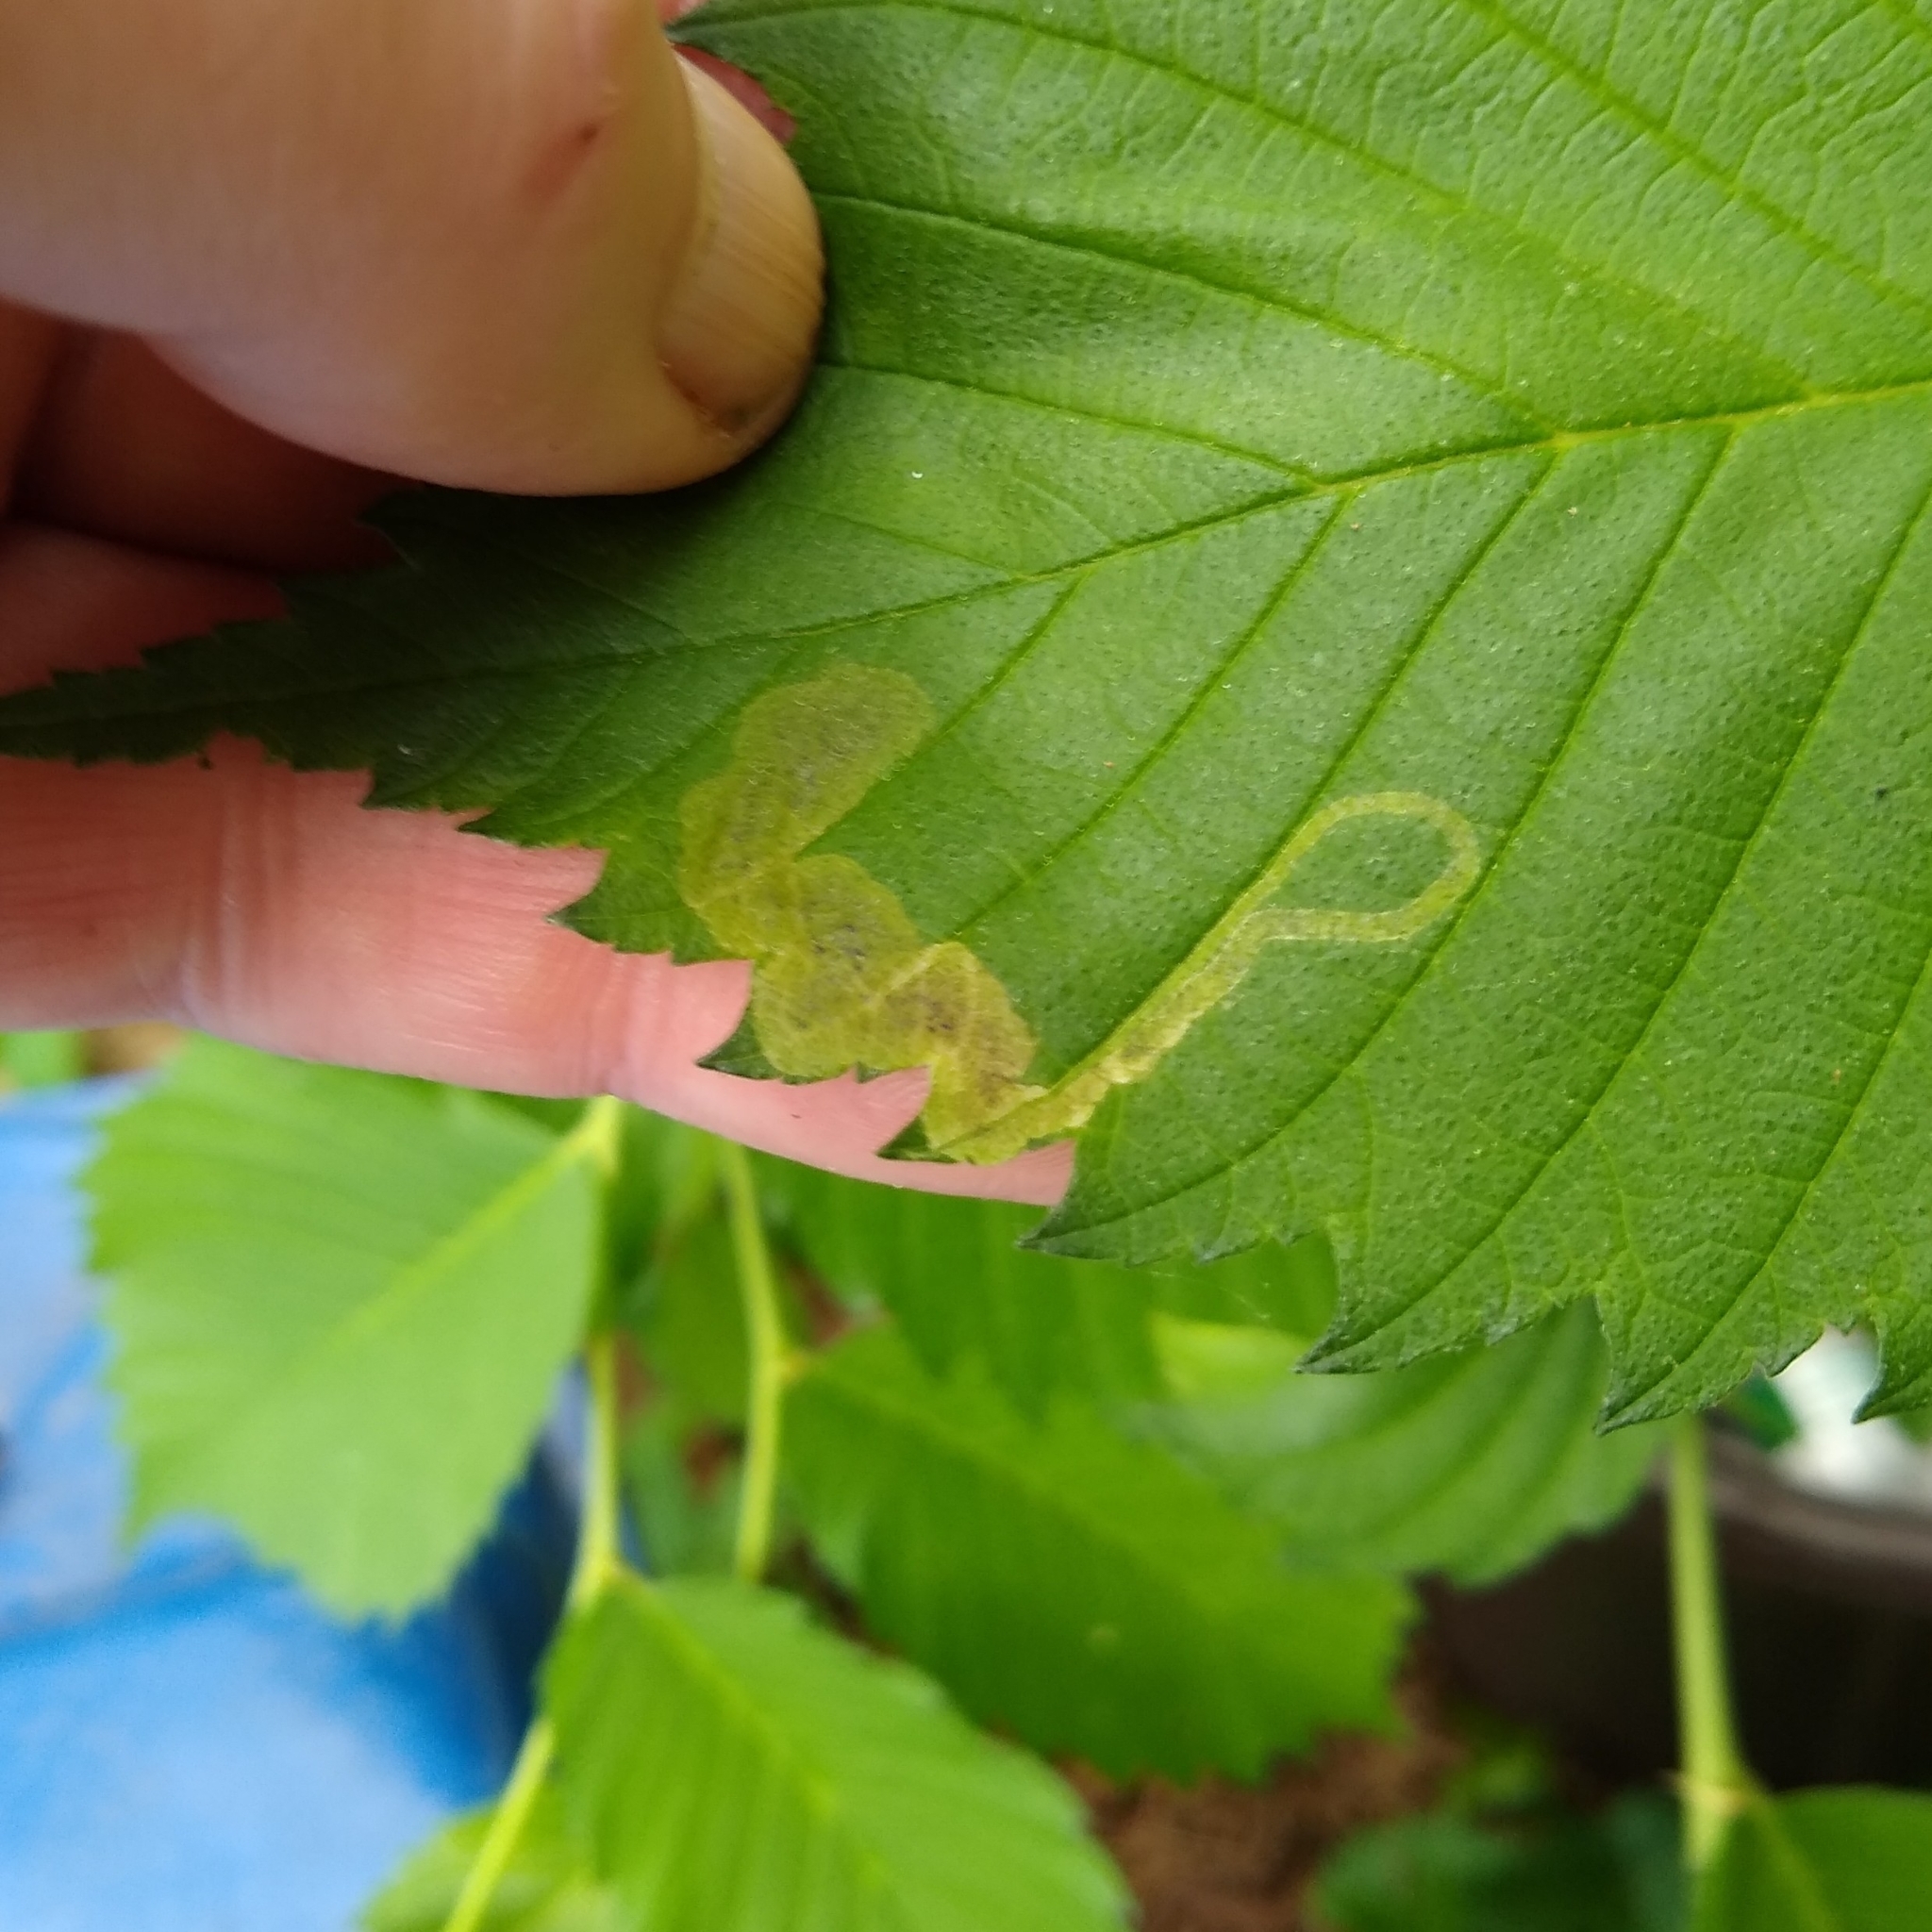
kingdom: Animalia
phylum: Arthropoda
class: Insecta
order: Diptera
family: Agromyzidae
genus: Agromyza
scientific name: Agromyza aristata
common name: Elm agromyzid leafminer
